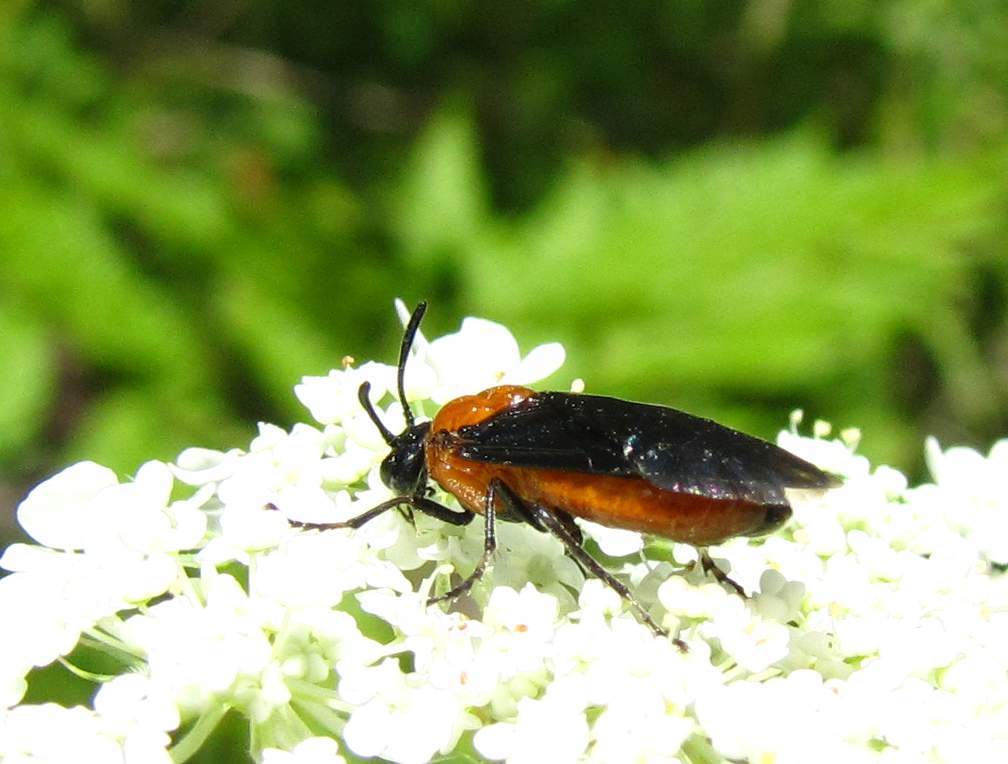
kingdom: Animalia
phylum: Arthropoda
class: Insecta
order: Hymenoptera
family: Argidae
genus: Arge
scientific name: Arge pectoralis
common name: Birch sawfly
